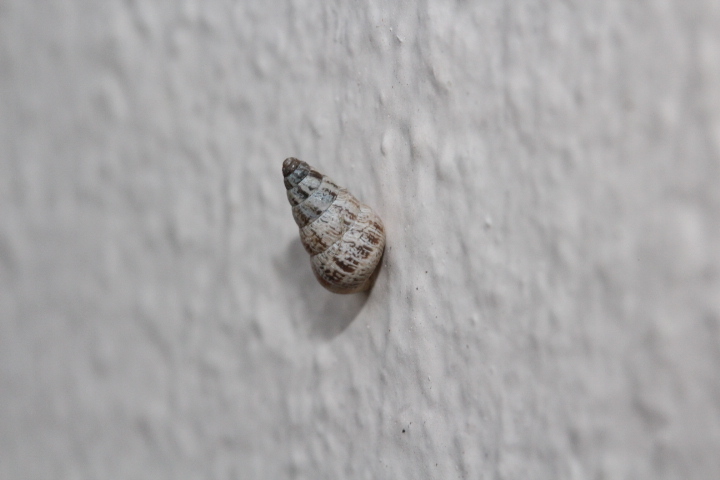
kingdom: Animalia
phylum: Mollusca
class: Gastropoda
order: Stylommatophora
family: Geomitridae
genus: Cochlicella
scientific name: Cochlicella barbara
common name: Potbellied helicellid
